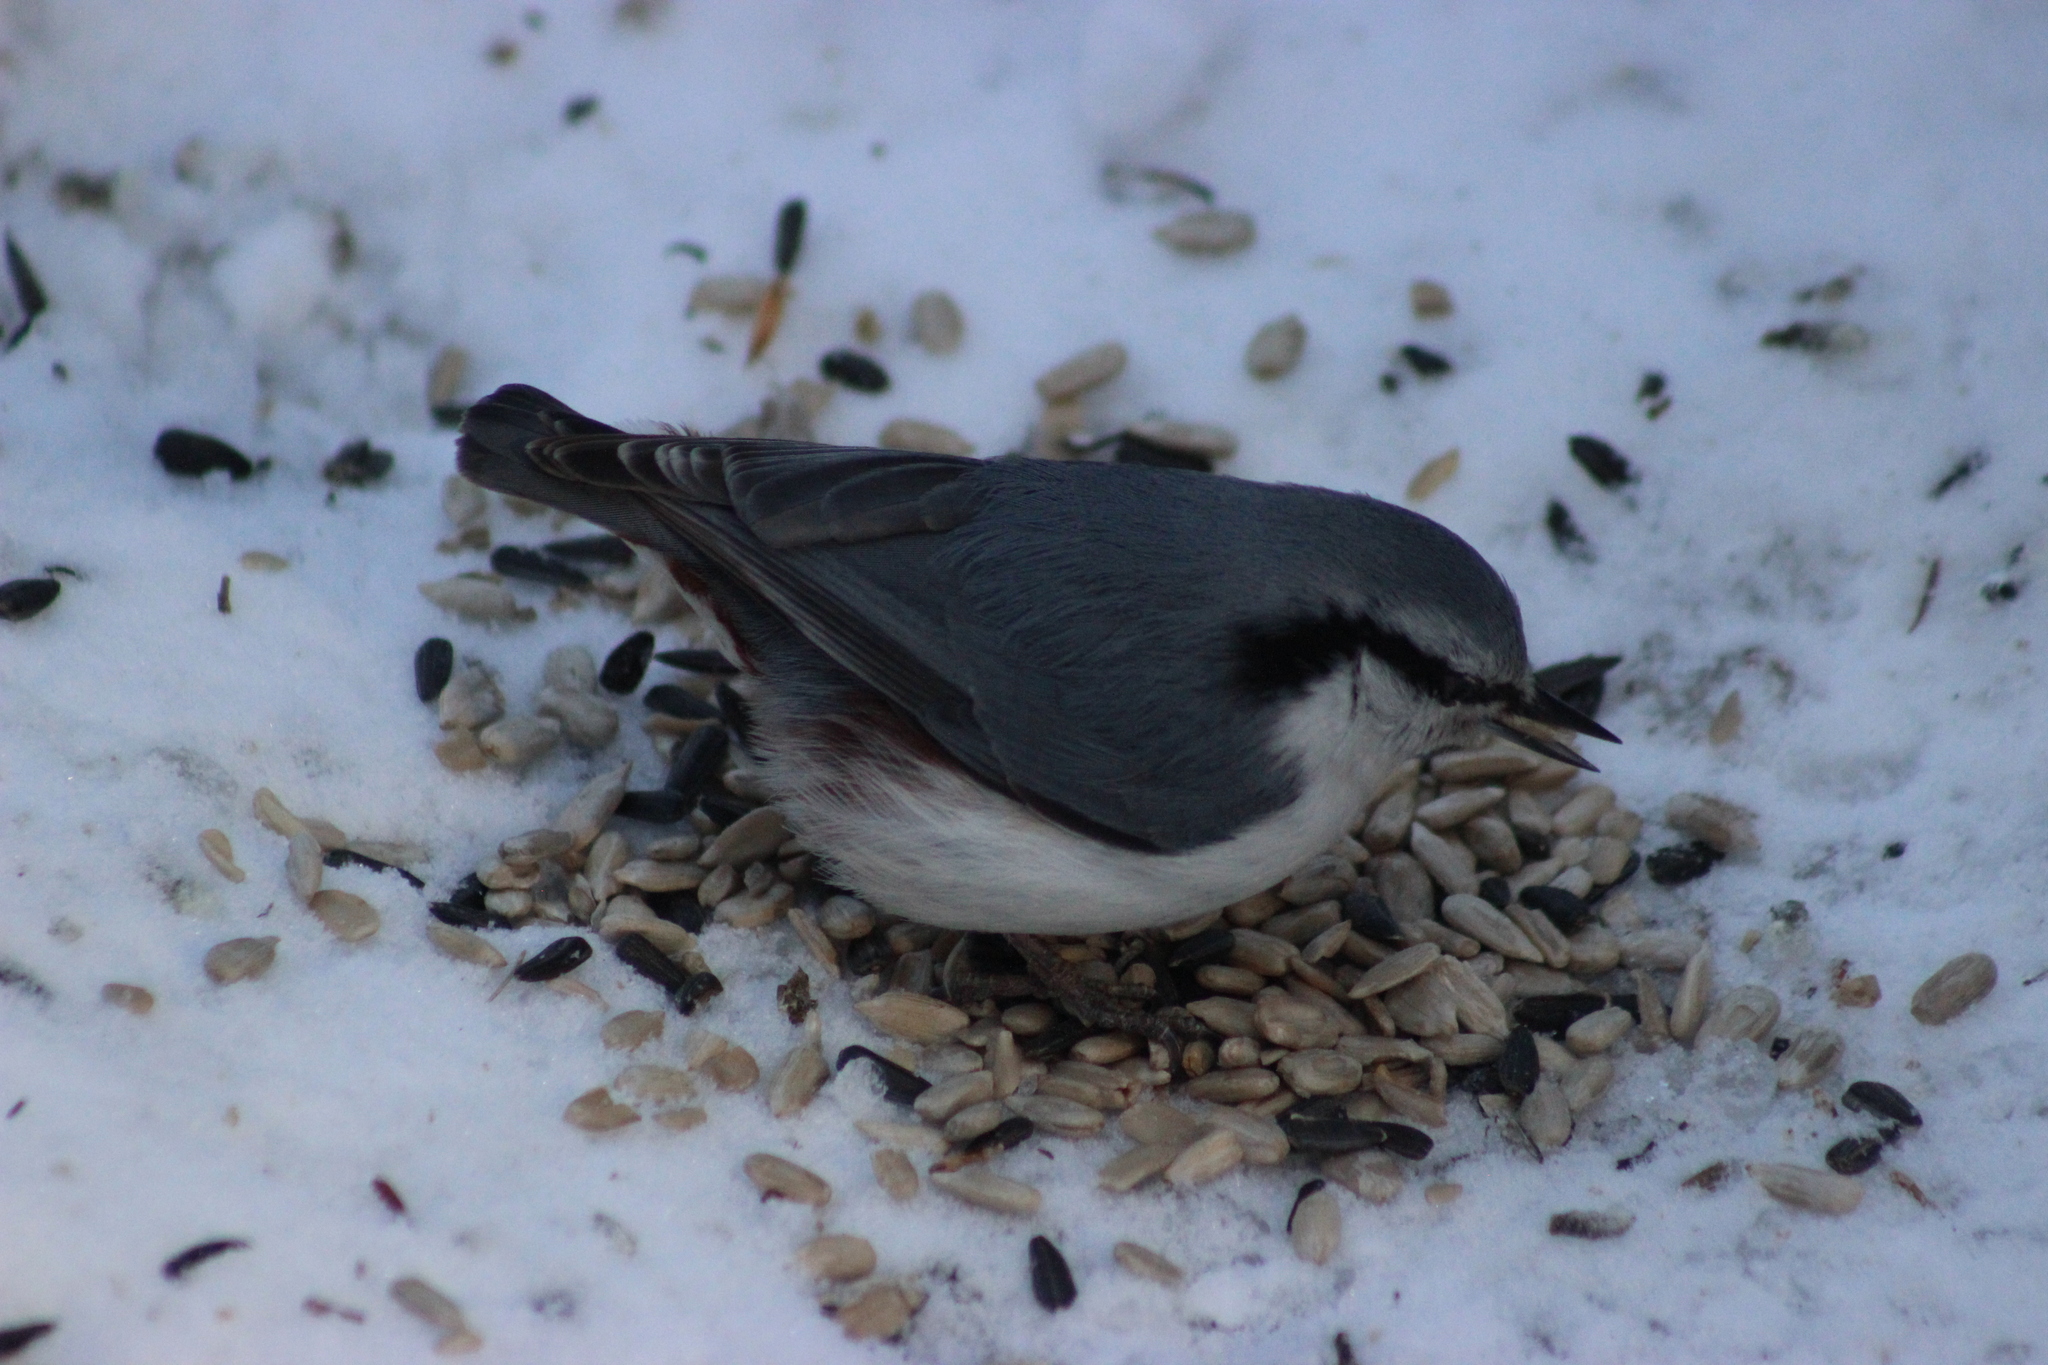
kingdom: Animalia
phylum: Chordata
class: Aves
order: Passeriformes
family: Sittidae
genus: Sitta
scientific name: Sitta europaea
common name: Eurasian nuthatch
